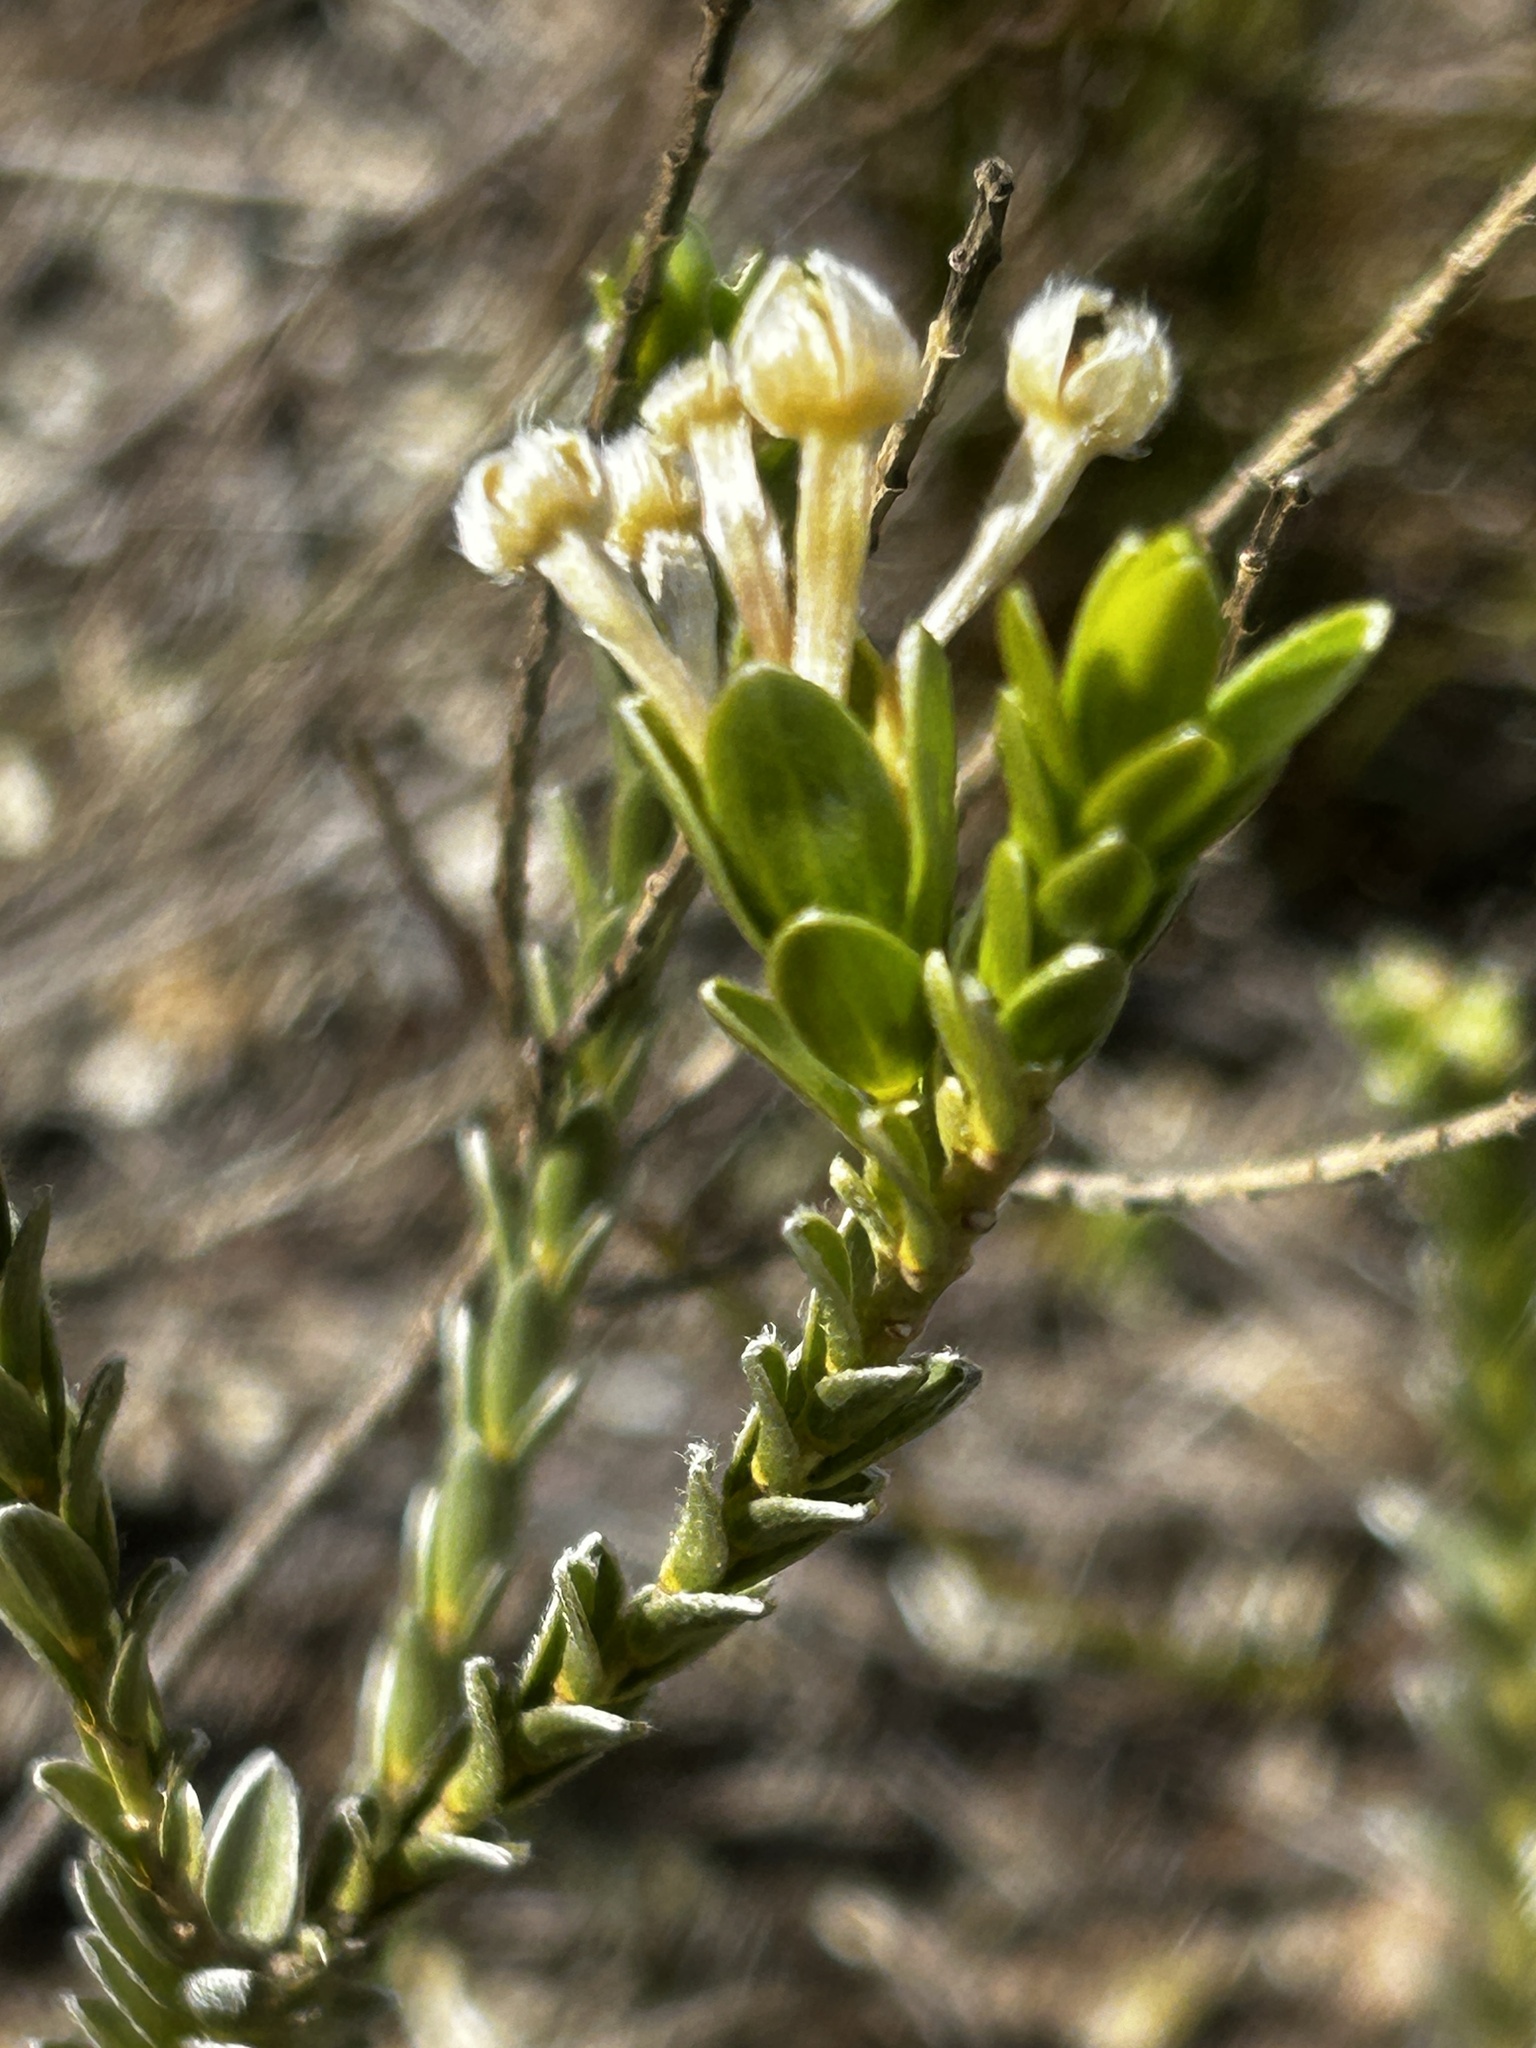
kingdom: Plantae
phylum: Tracheophyta
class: Magnoliopsida
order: Malvales
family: Thymelaeaceae
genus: Gnidia
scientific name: Gnidia chrysophylla
